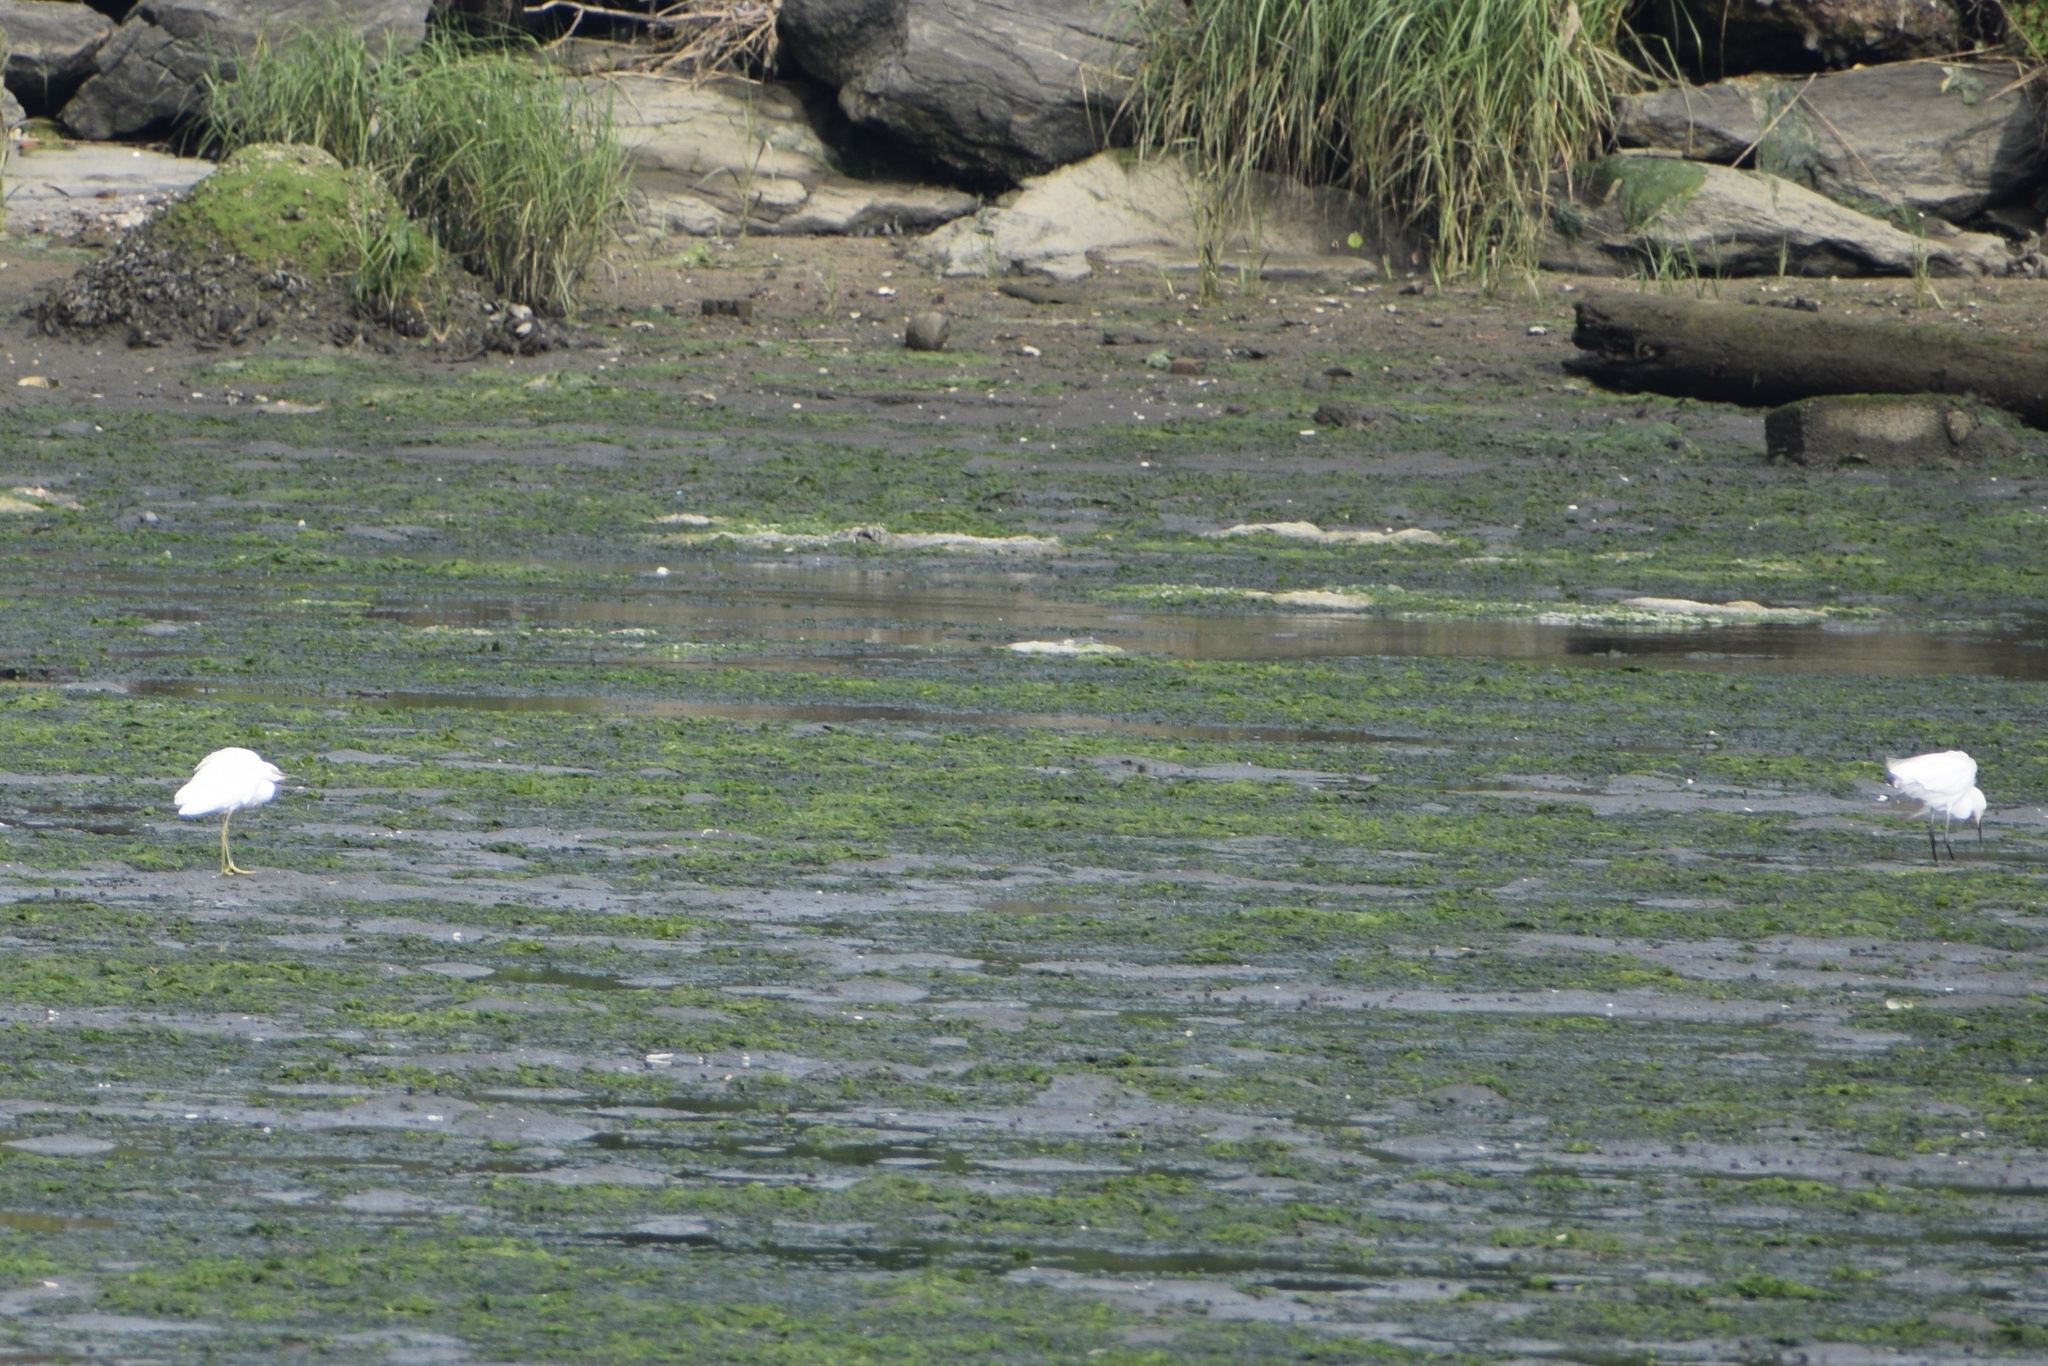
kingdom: Animalia
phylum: Chordata
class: Aves
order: Pelecaniformes
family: Ardeidae
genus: Egretta
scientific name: Egretta thula
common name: Snowy egret
